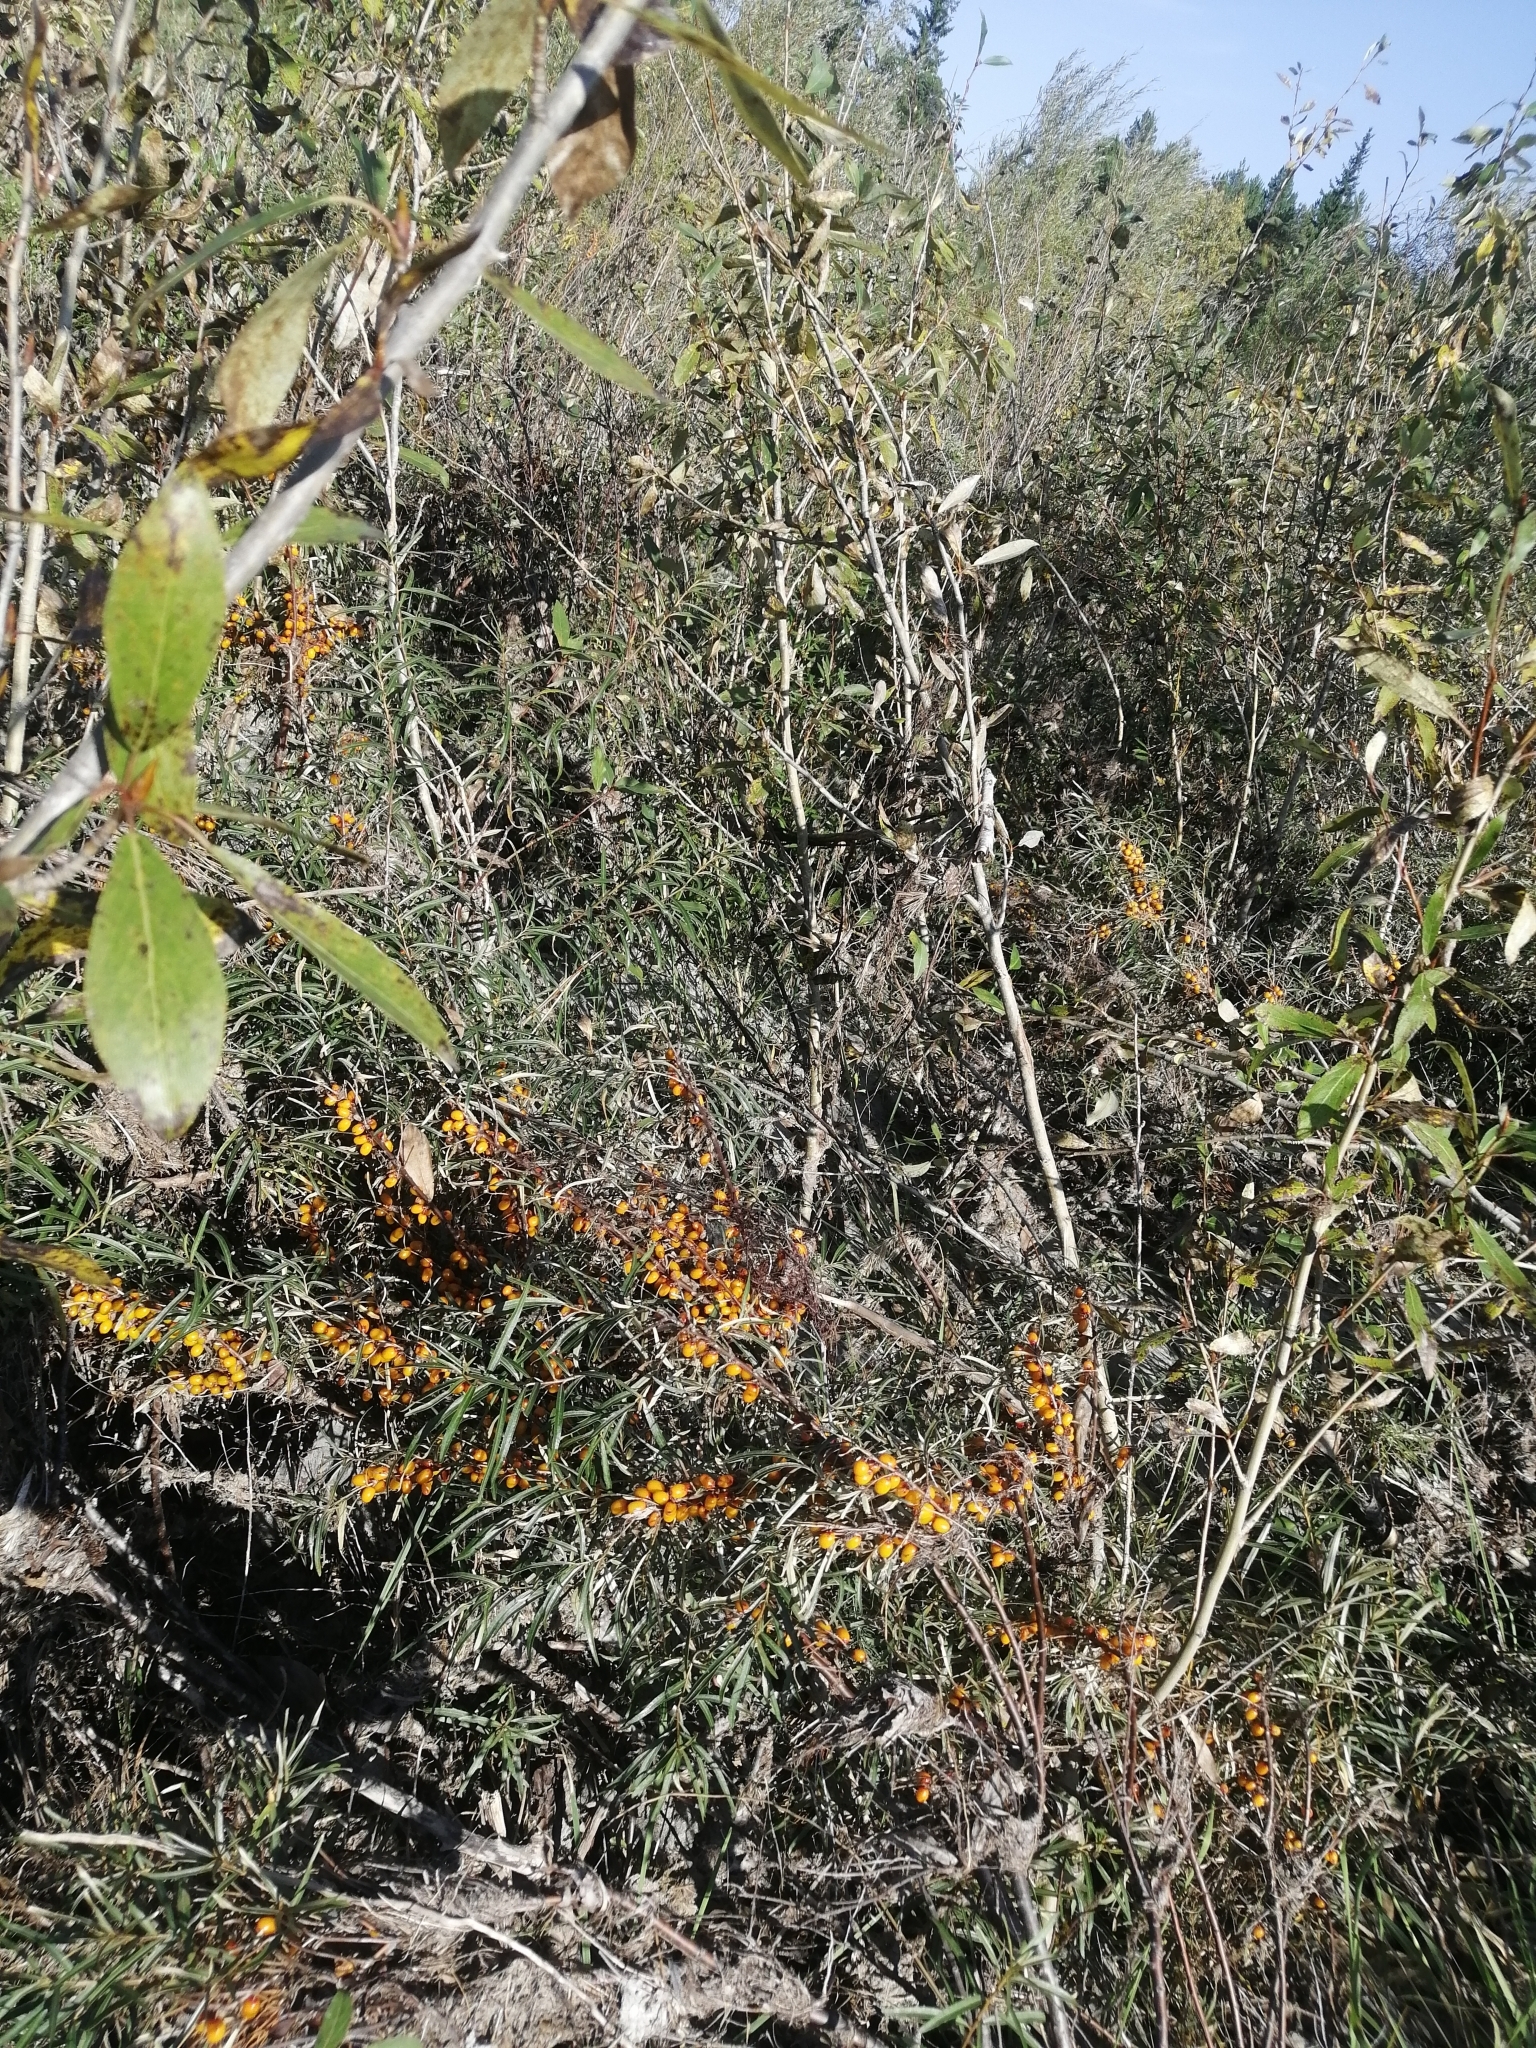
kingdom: Plantae
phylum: Tracheophyta
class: Magnoliopsida
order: Rosales
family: Elaeagnaceae
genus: Hippophae
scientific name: Hippophae rhamnoides
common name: Sea-buckthorn
